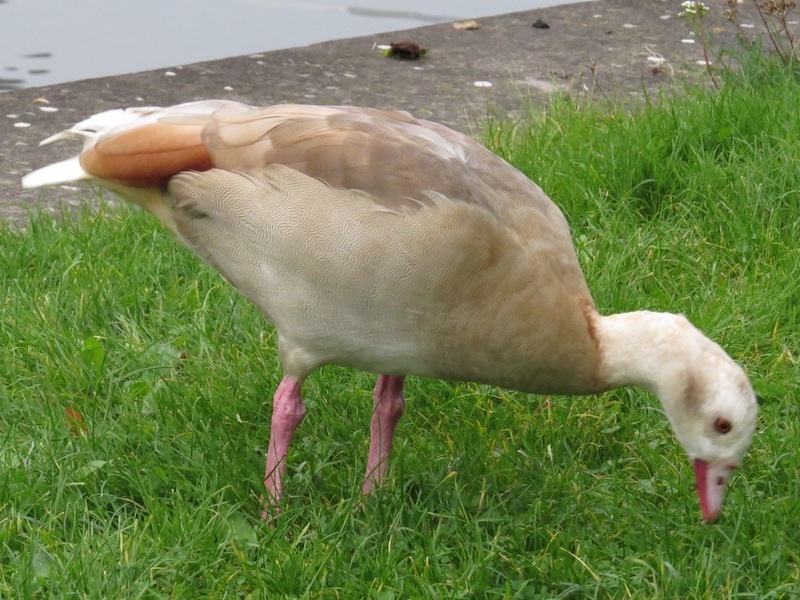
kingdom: Animalia
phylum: Chordata
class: Aves
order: Anseriformes
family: Anatidae
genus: Alopochen
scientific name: Alopochen aegyptiaca
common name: Egyptian goose
